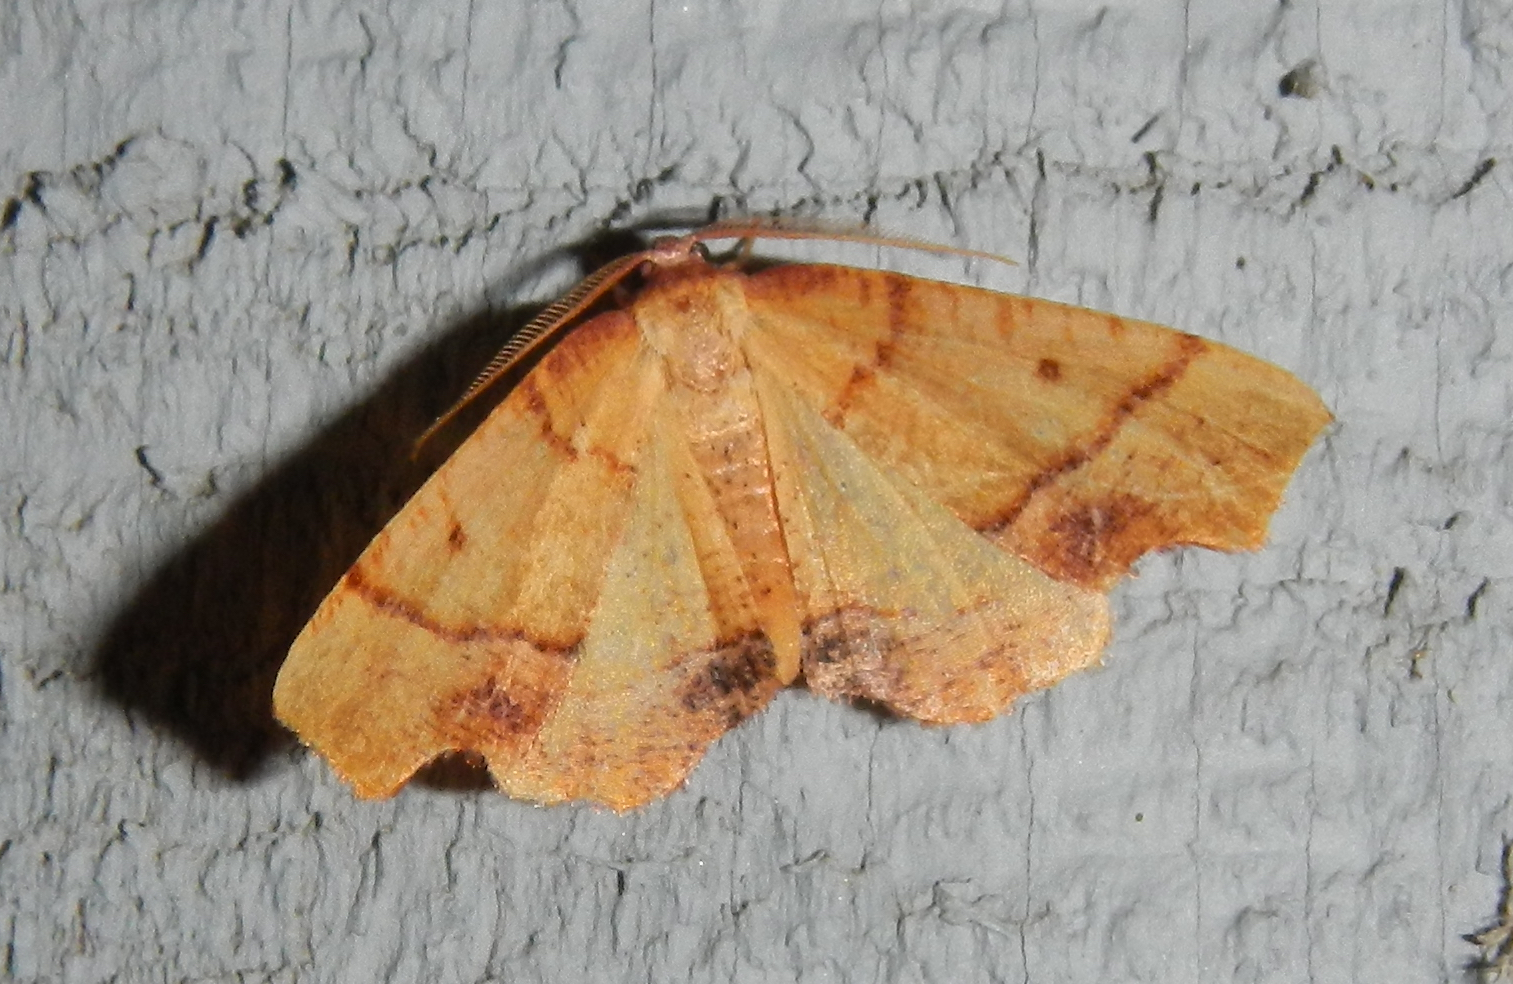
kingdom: Animalia
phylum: Arthropoda
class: Insecta
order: Lepidoptera
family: Geometridae
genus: Plagodis
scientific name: Plagodis phlogosaria
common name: Straight-lined plagodis
